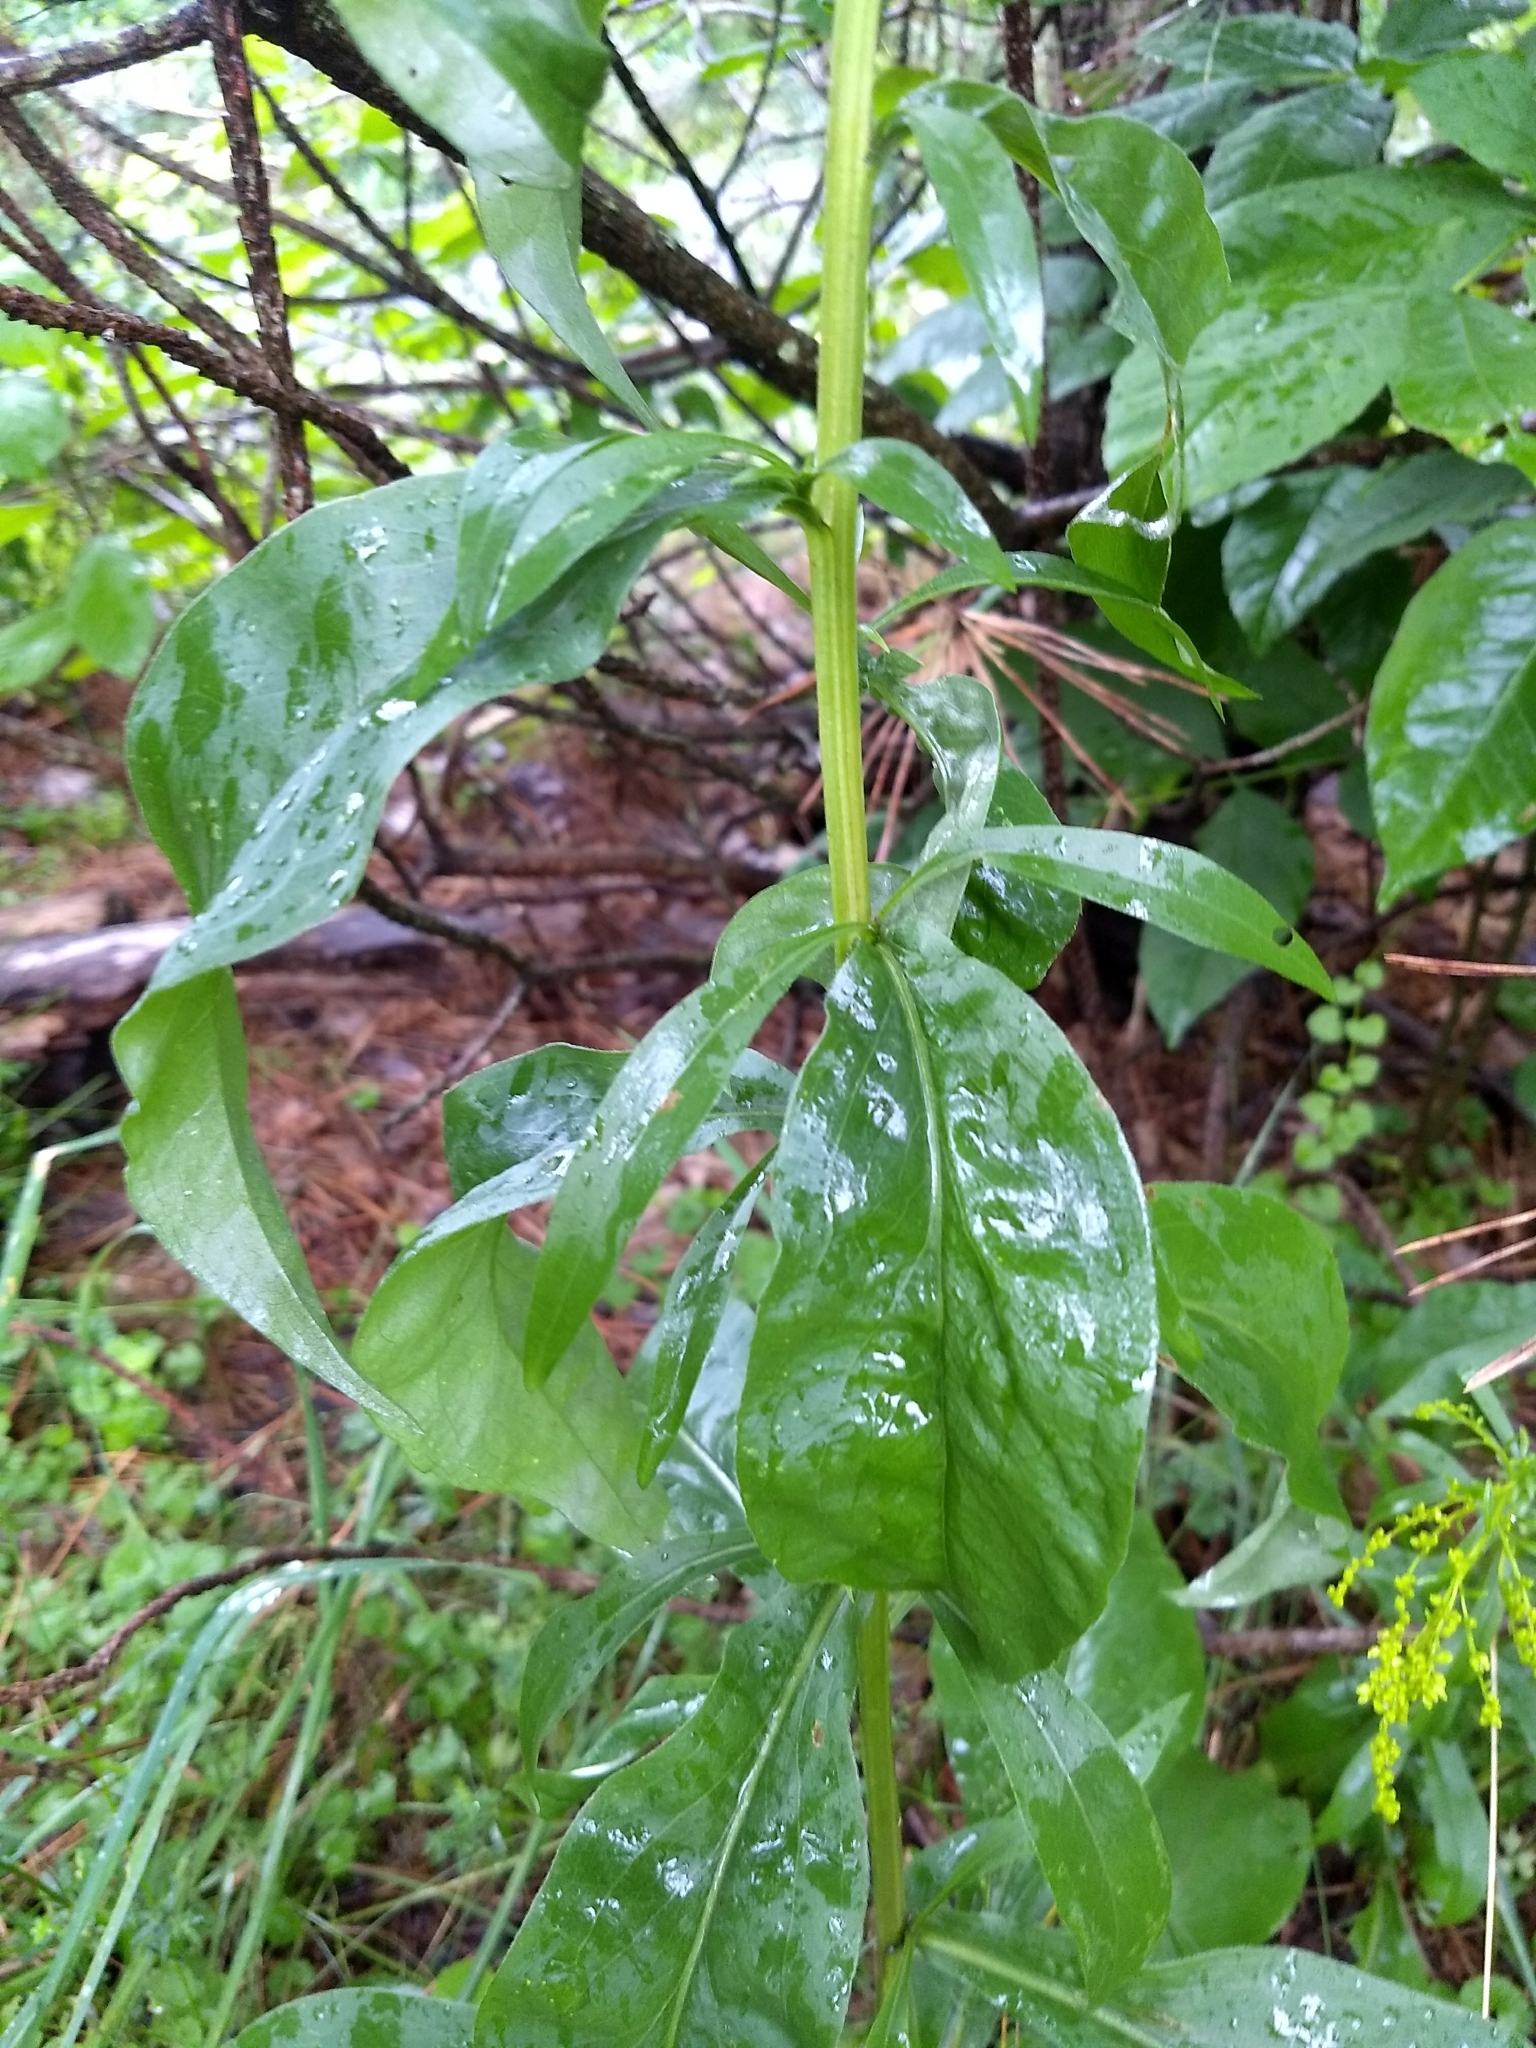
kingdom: Plantae
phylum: Tracheophyta
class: Magnoliopsida
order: Asterales
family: Asteraceae
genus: Solidago
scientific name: Solidago juncea
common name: Early goldenrod
